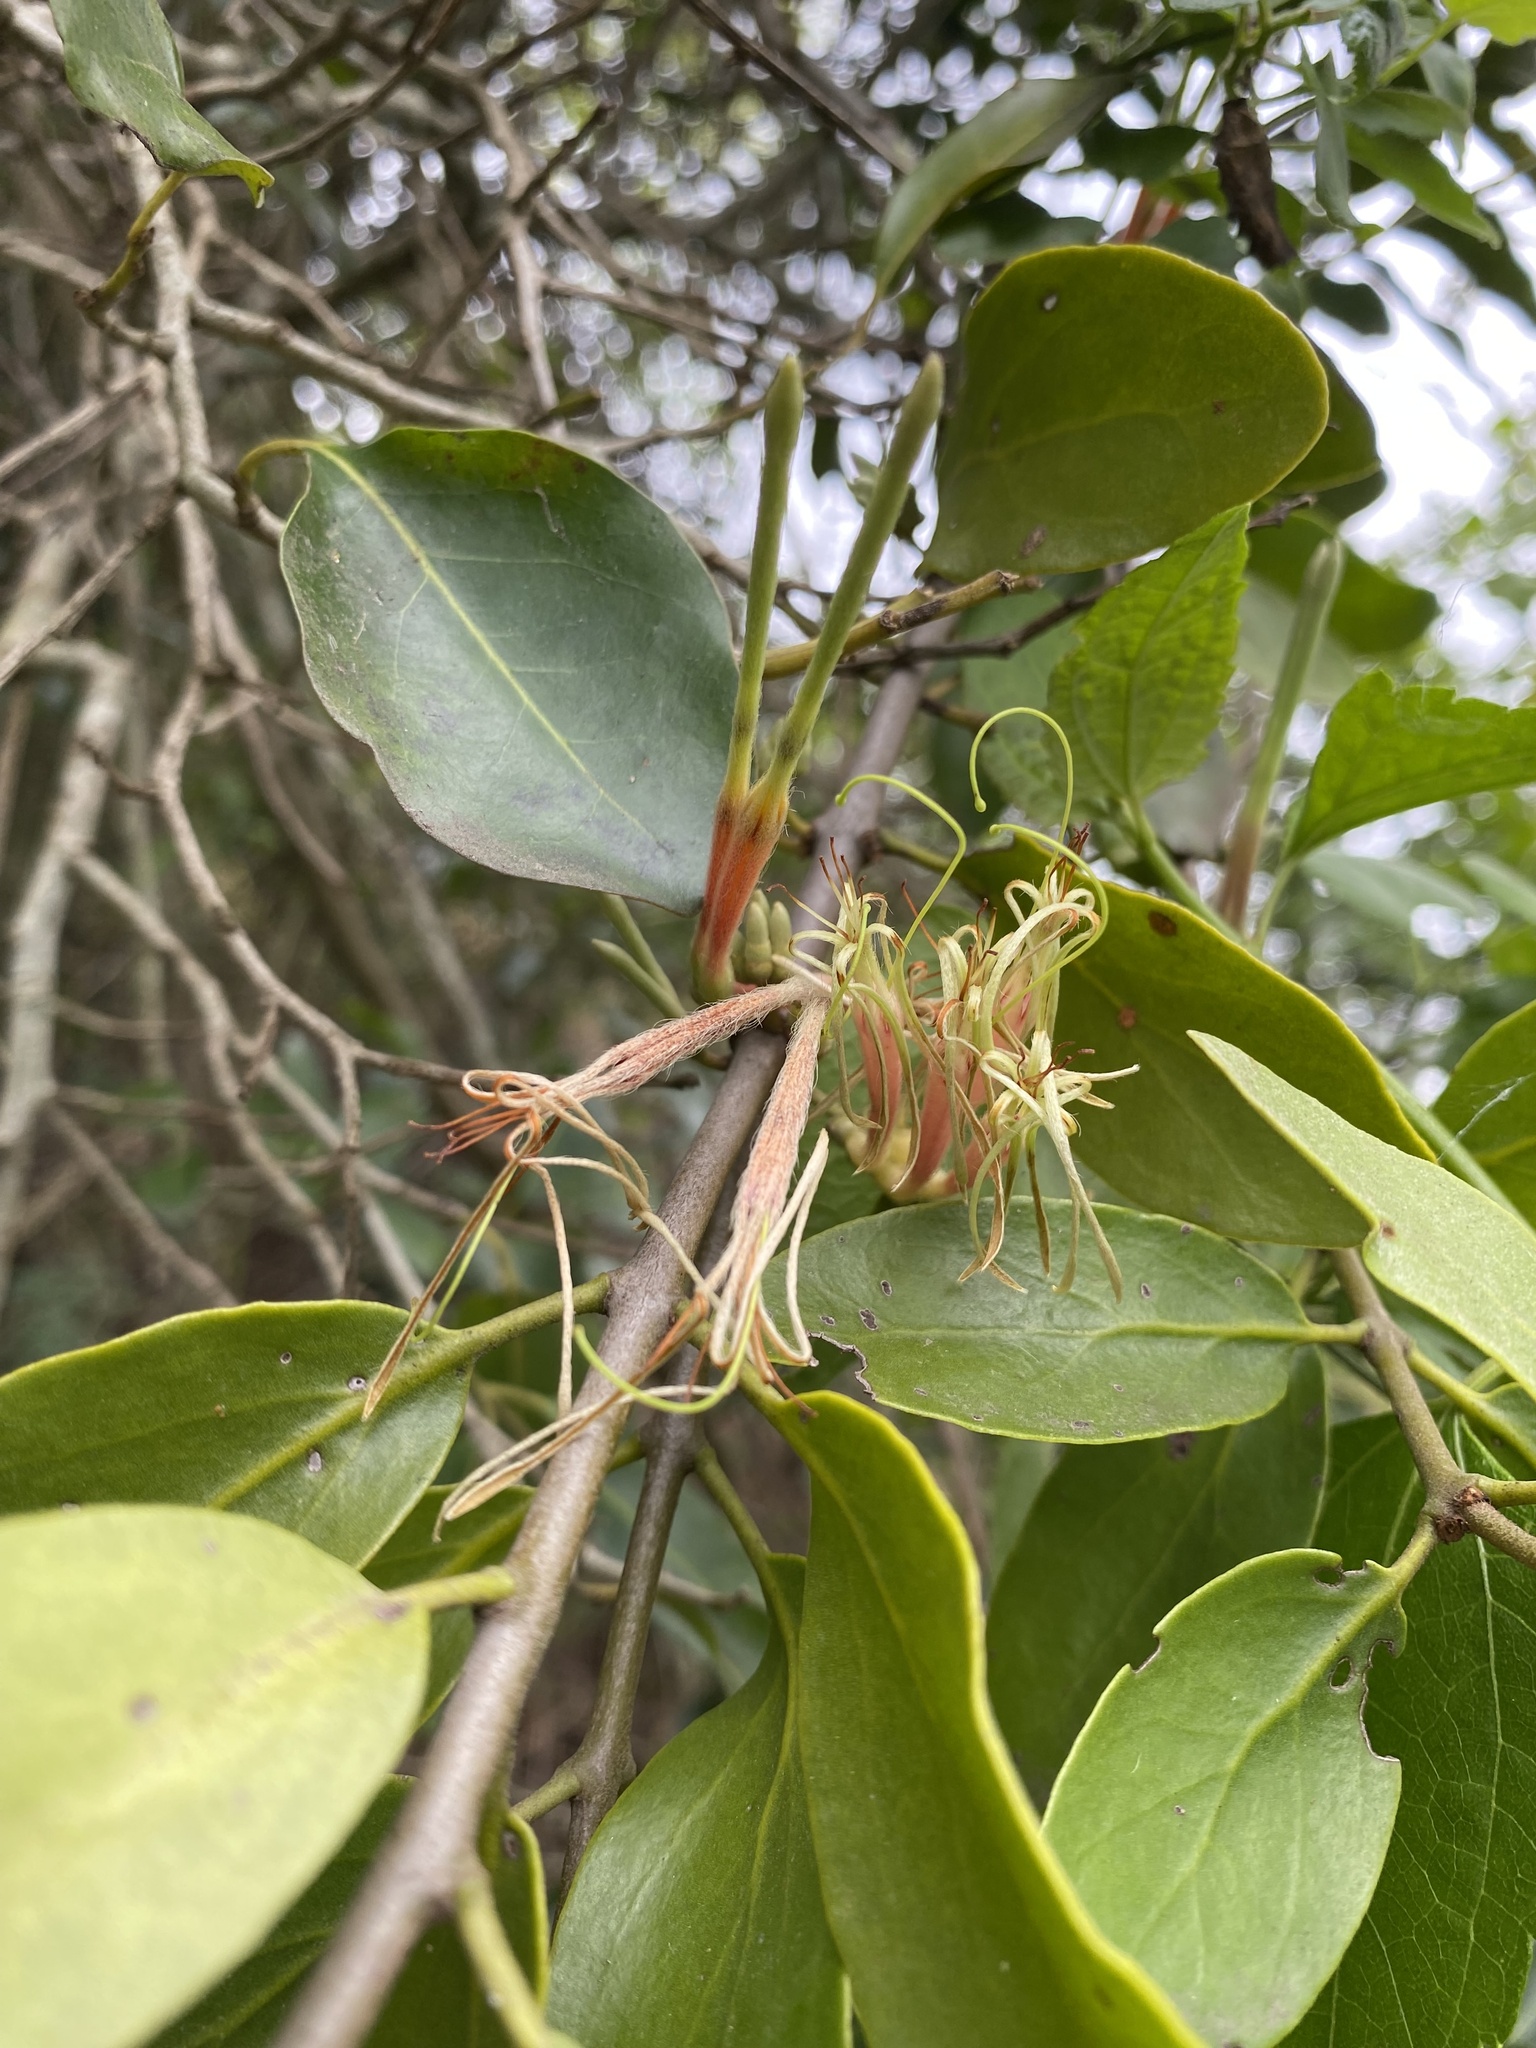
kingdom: Plantae
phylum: Tracheophyta
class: Magnoliopsida
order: Santalales
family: Loranthaceae
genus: Erianthemum
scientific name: Erianthemum dregei
